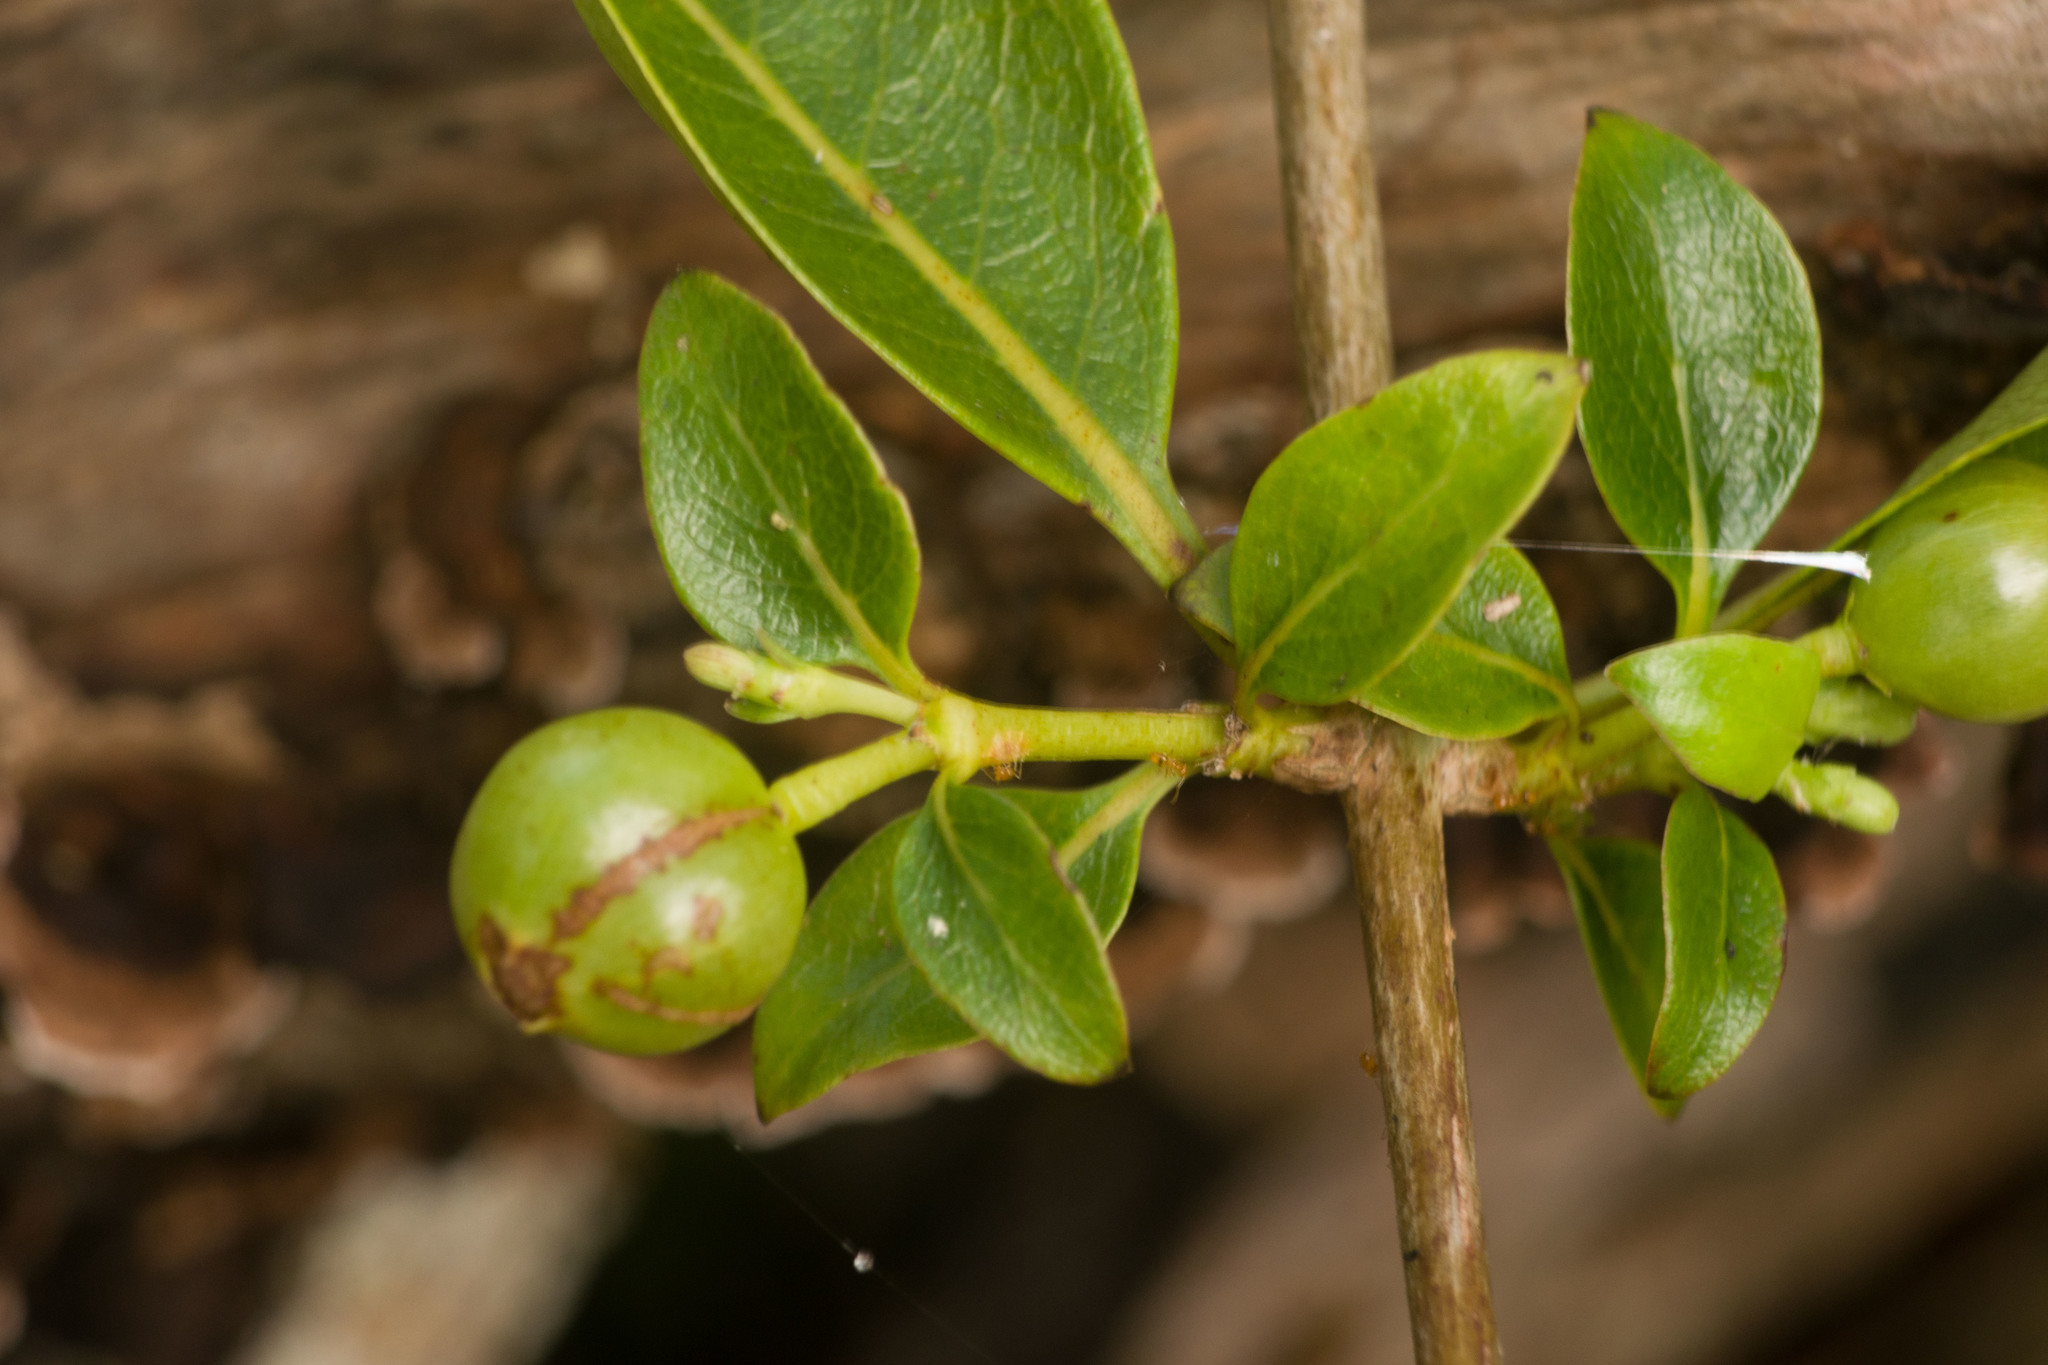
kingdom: Plantae
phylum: Tracheophyta
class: Magnoliopsida
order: Gentianales
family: Rubiaceae
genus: Coprosma
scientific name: Coprosma foliosa
